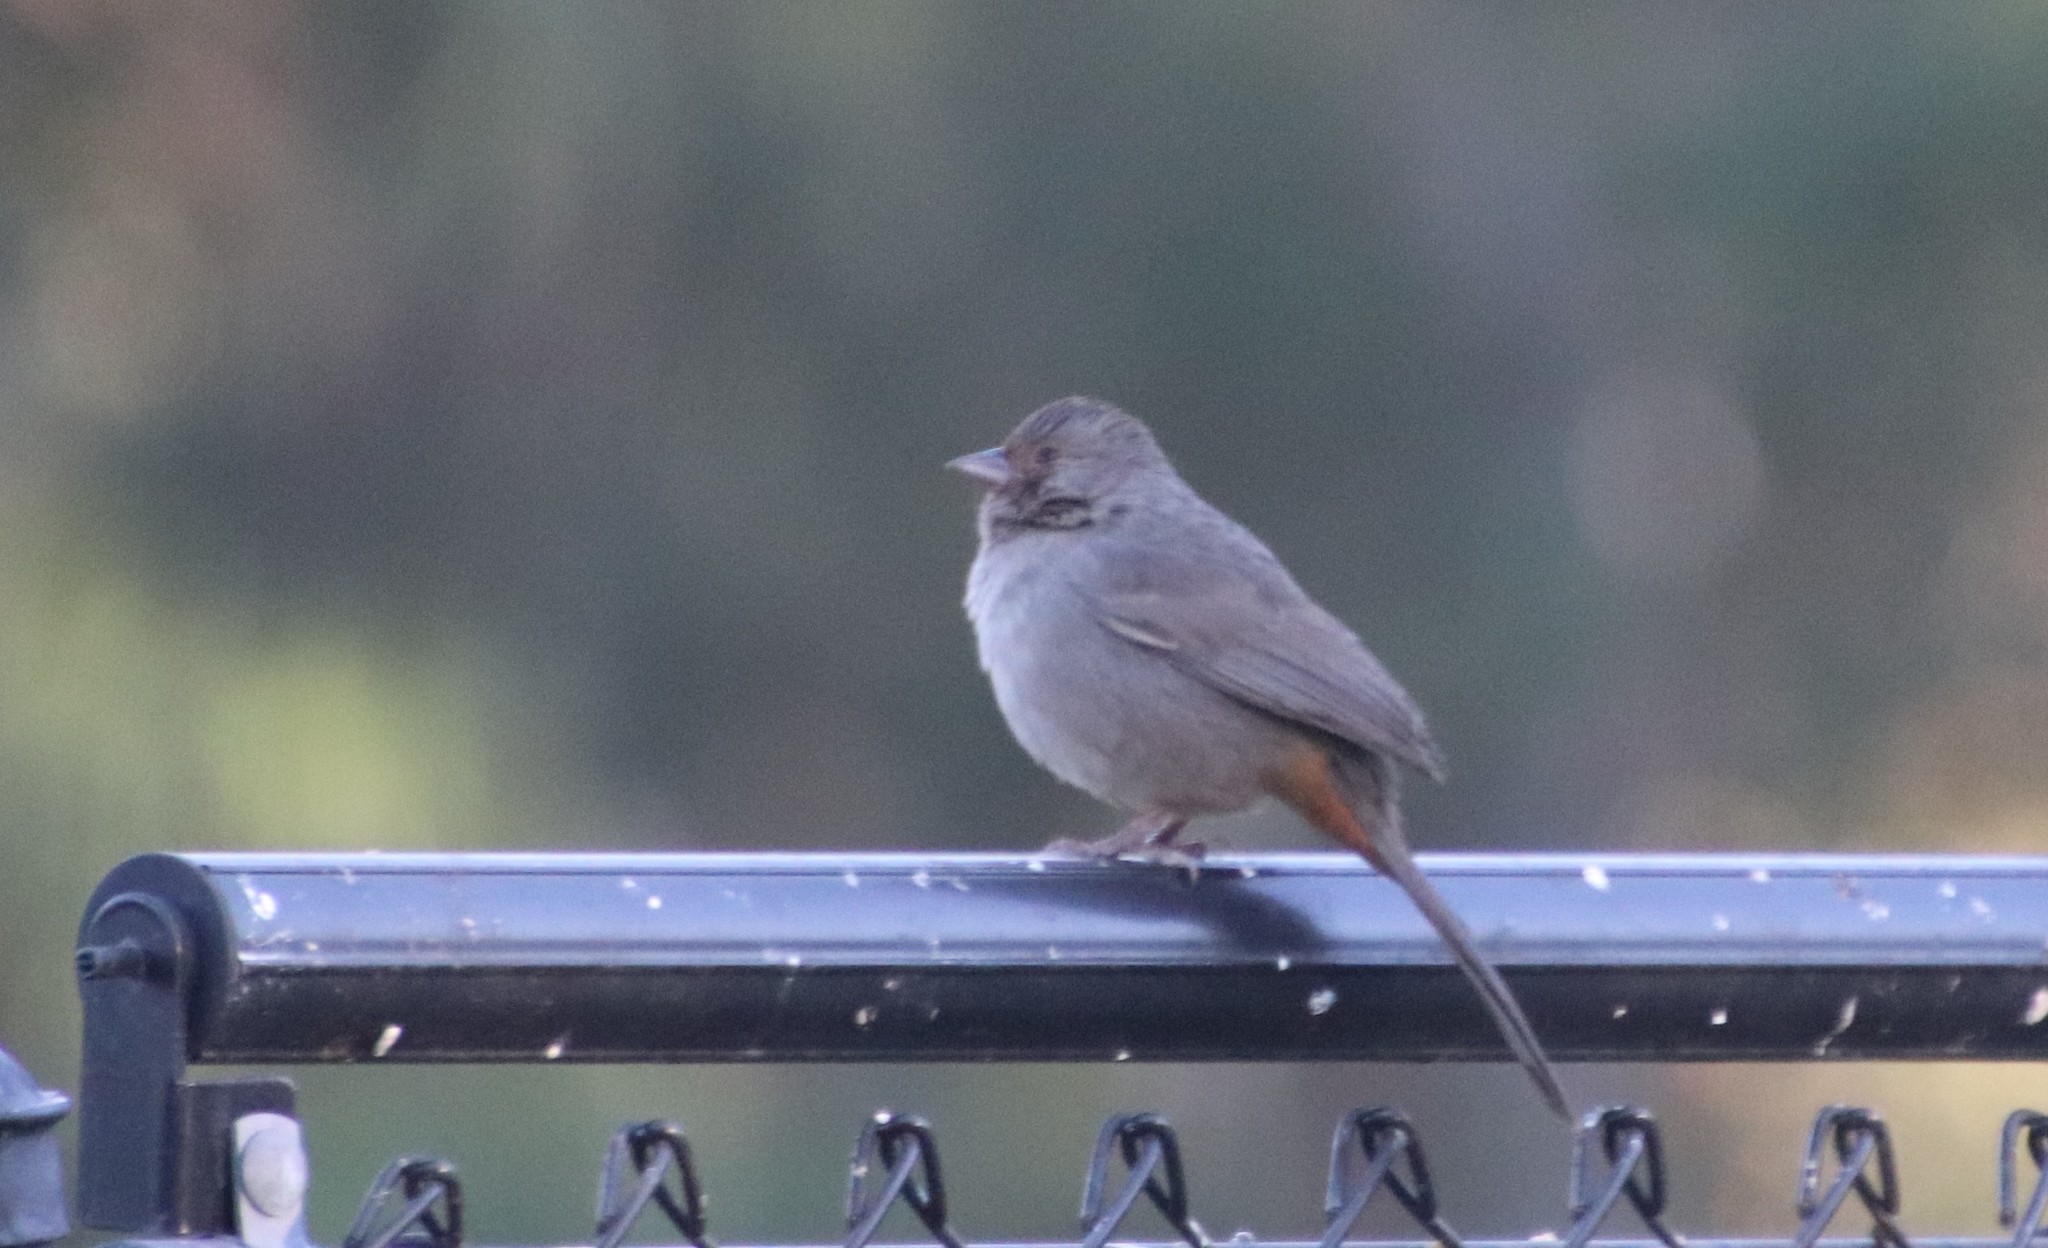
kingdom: Animalia
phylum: Chordata
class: Aves
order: Passeriformes
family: Passerellidae
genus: Melozone
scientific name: Melozone crissalis
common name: California towhee
